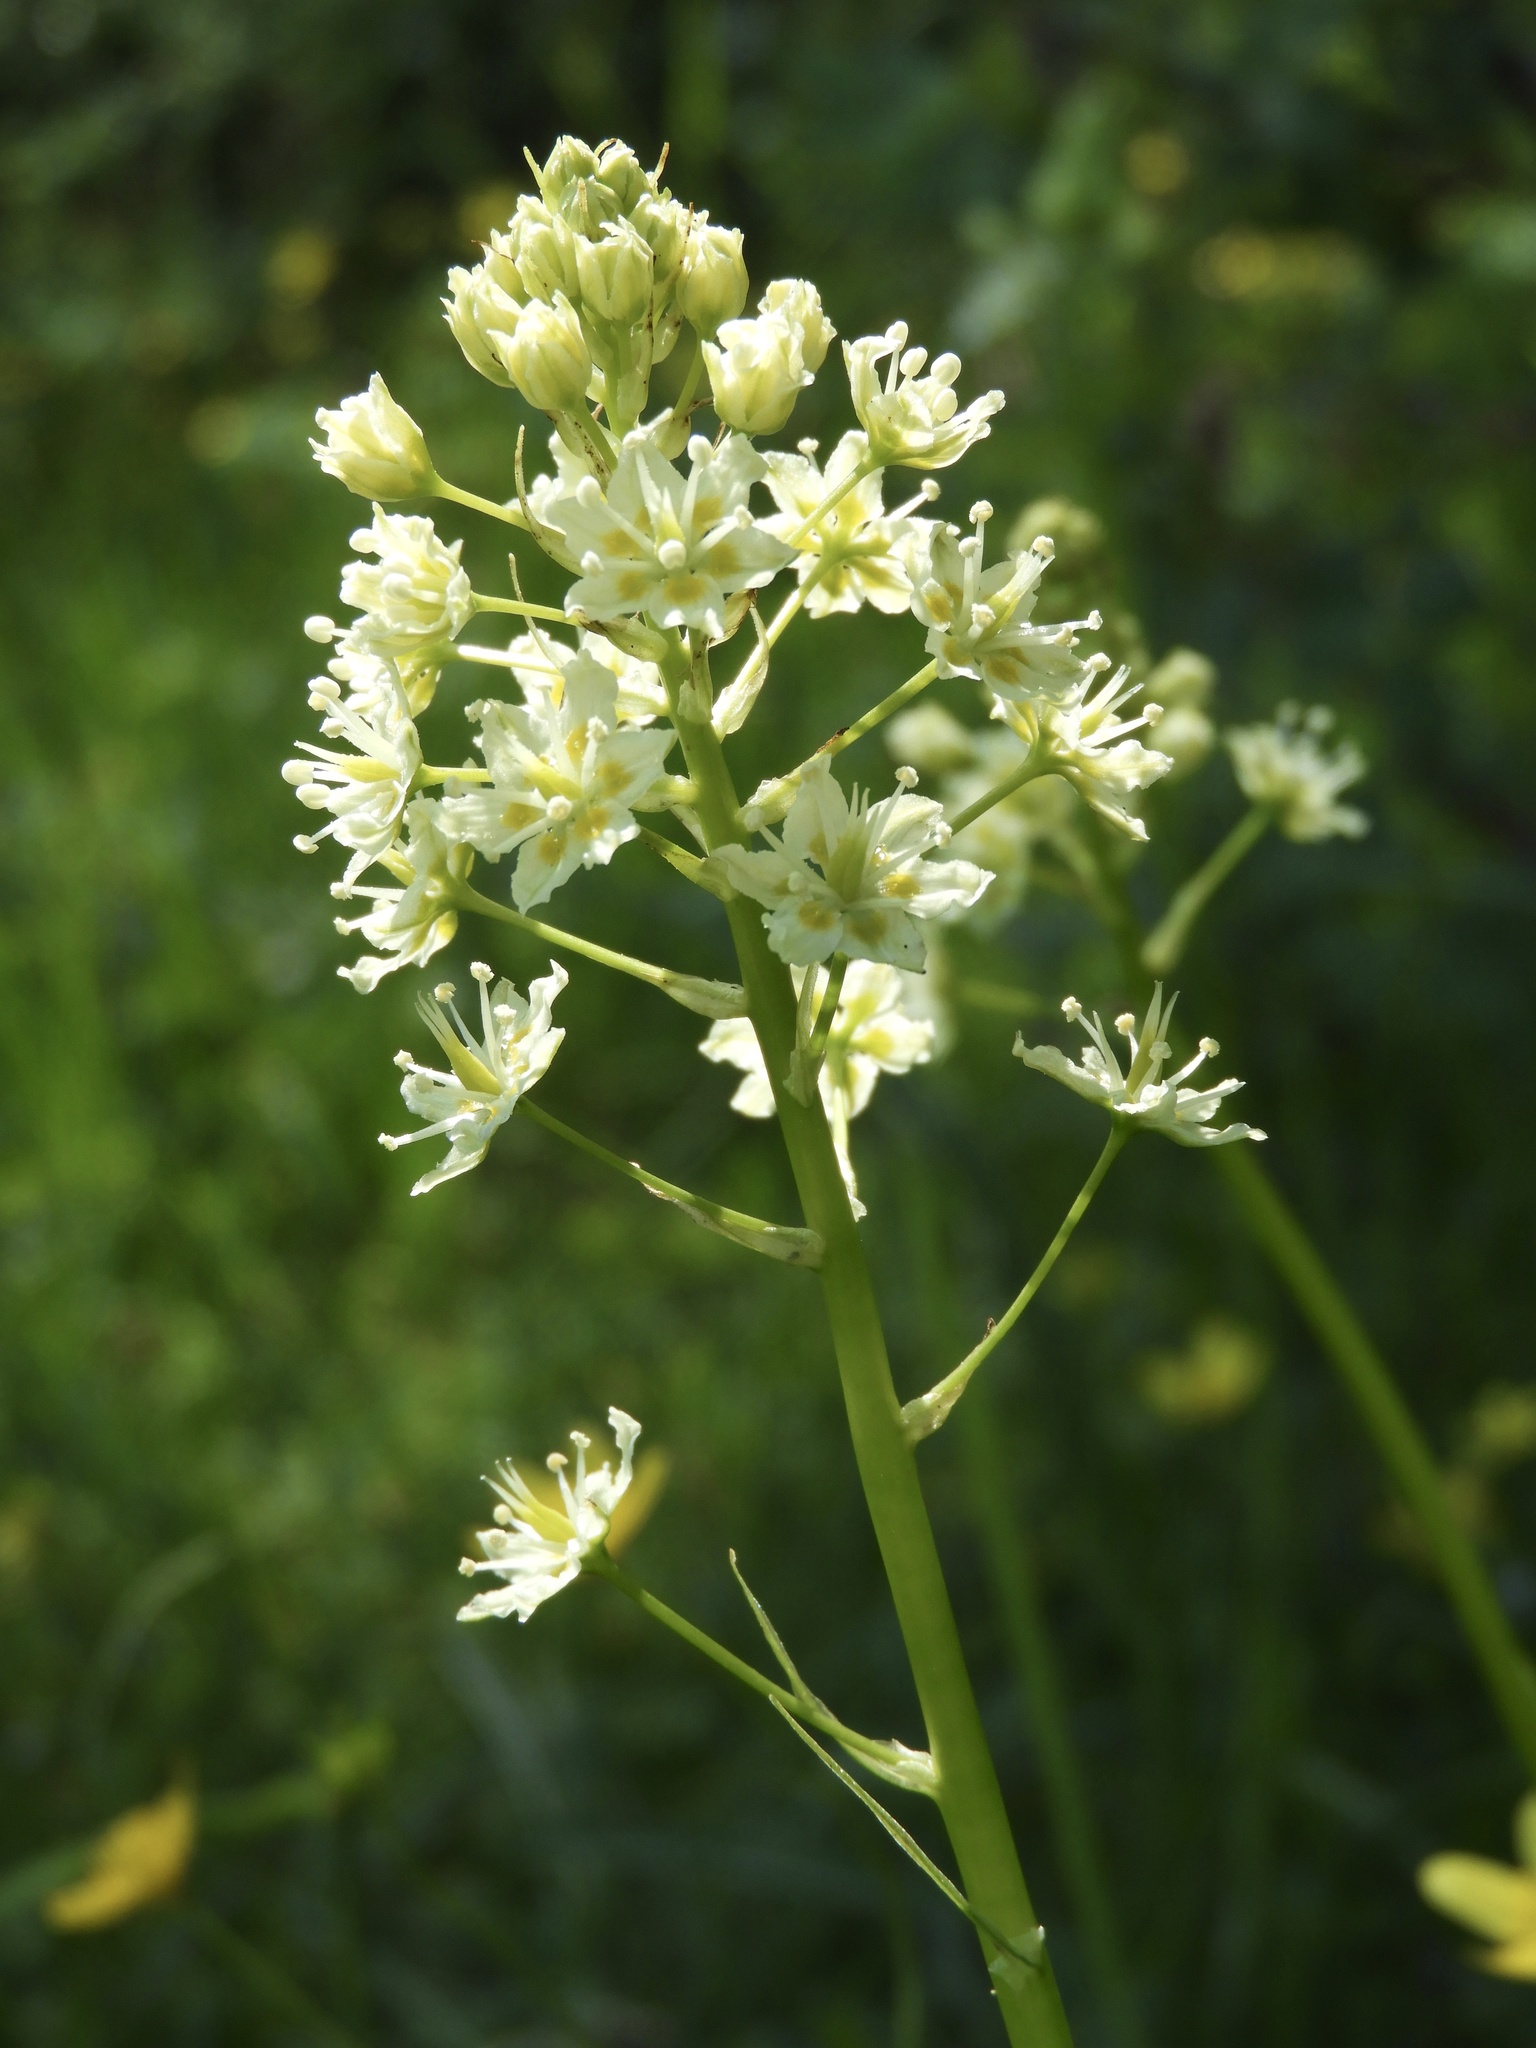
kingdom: Plantae
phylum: Tracheophyta
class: Liliopsida
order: Liliales
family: Melanthiaceae
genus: Toxicoscordion
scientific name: Toxicoscordion venenosum
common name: Meadow death camas
